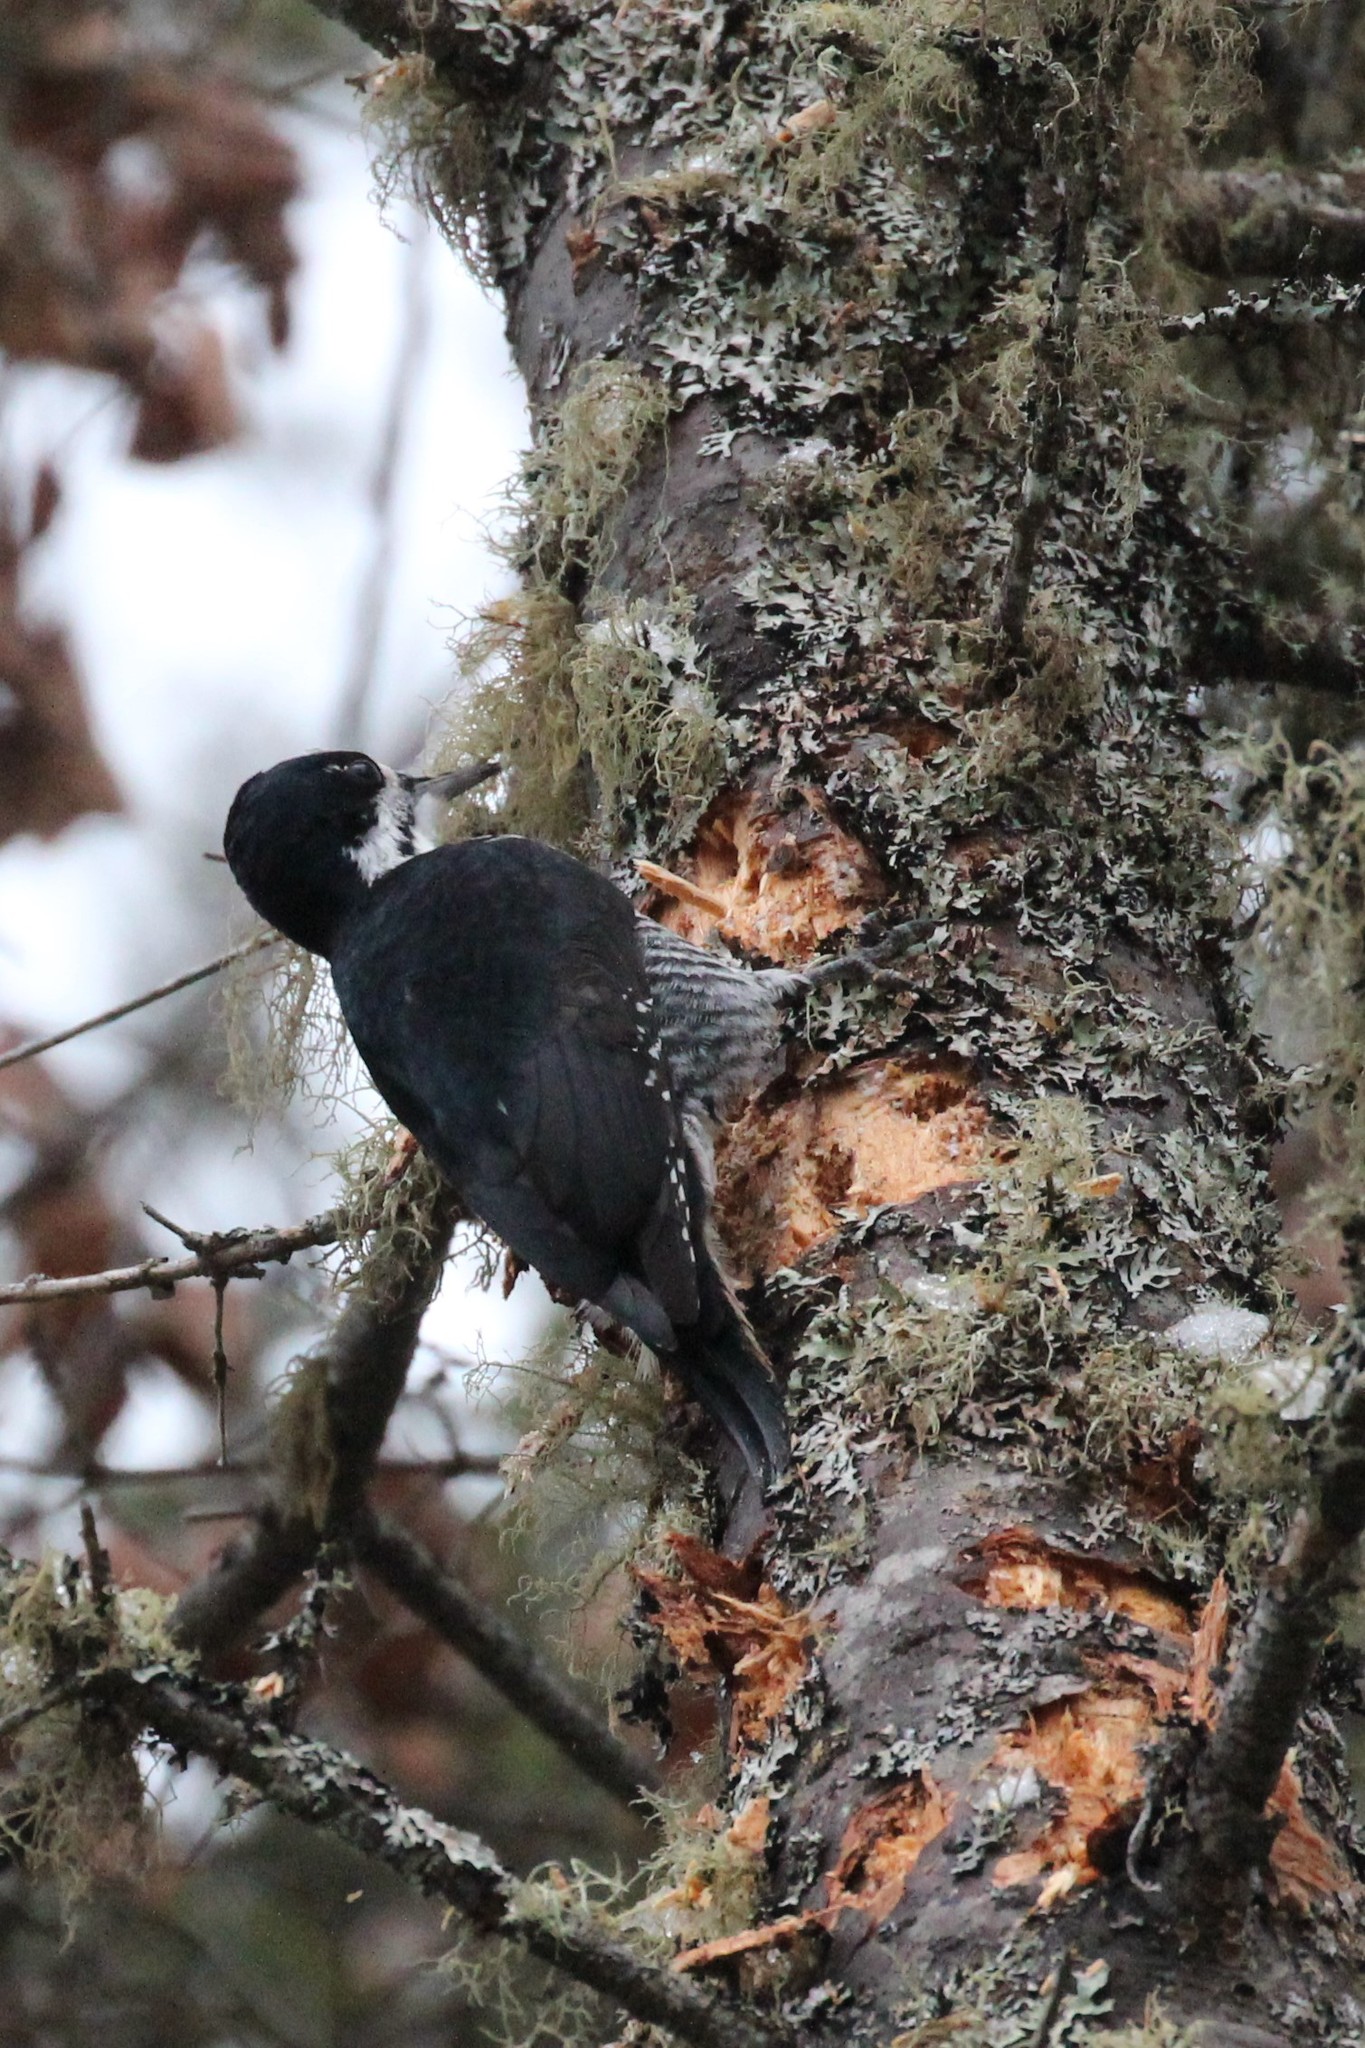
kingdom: Animalia
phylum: Chordata
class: Aves
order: Piciformes
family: Picidae
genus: Picoides
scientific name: Picoides arcticus
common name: Black-backed woodpecker
